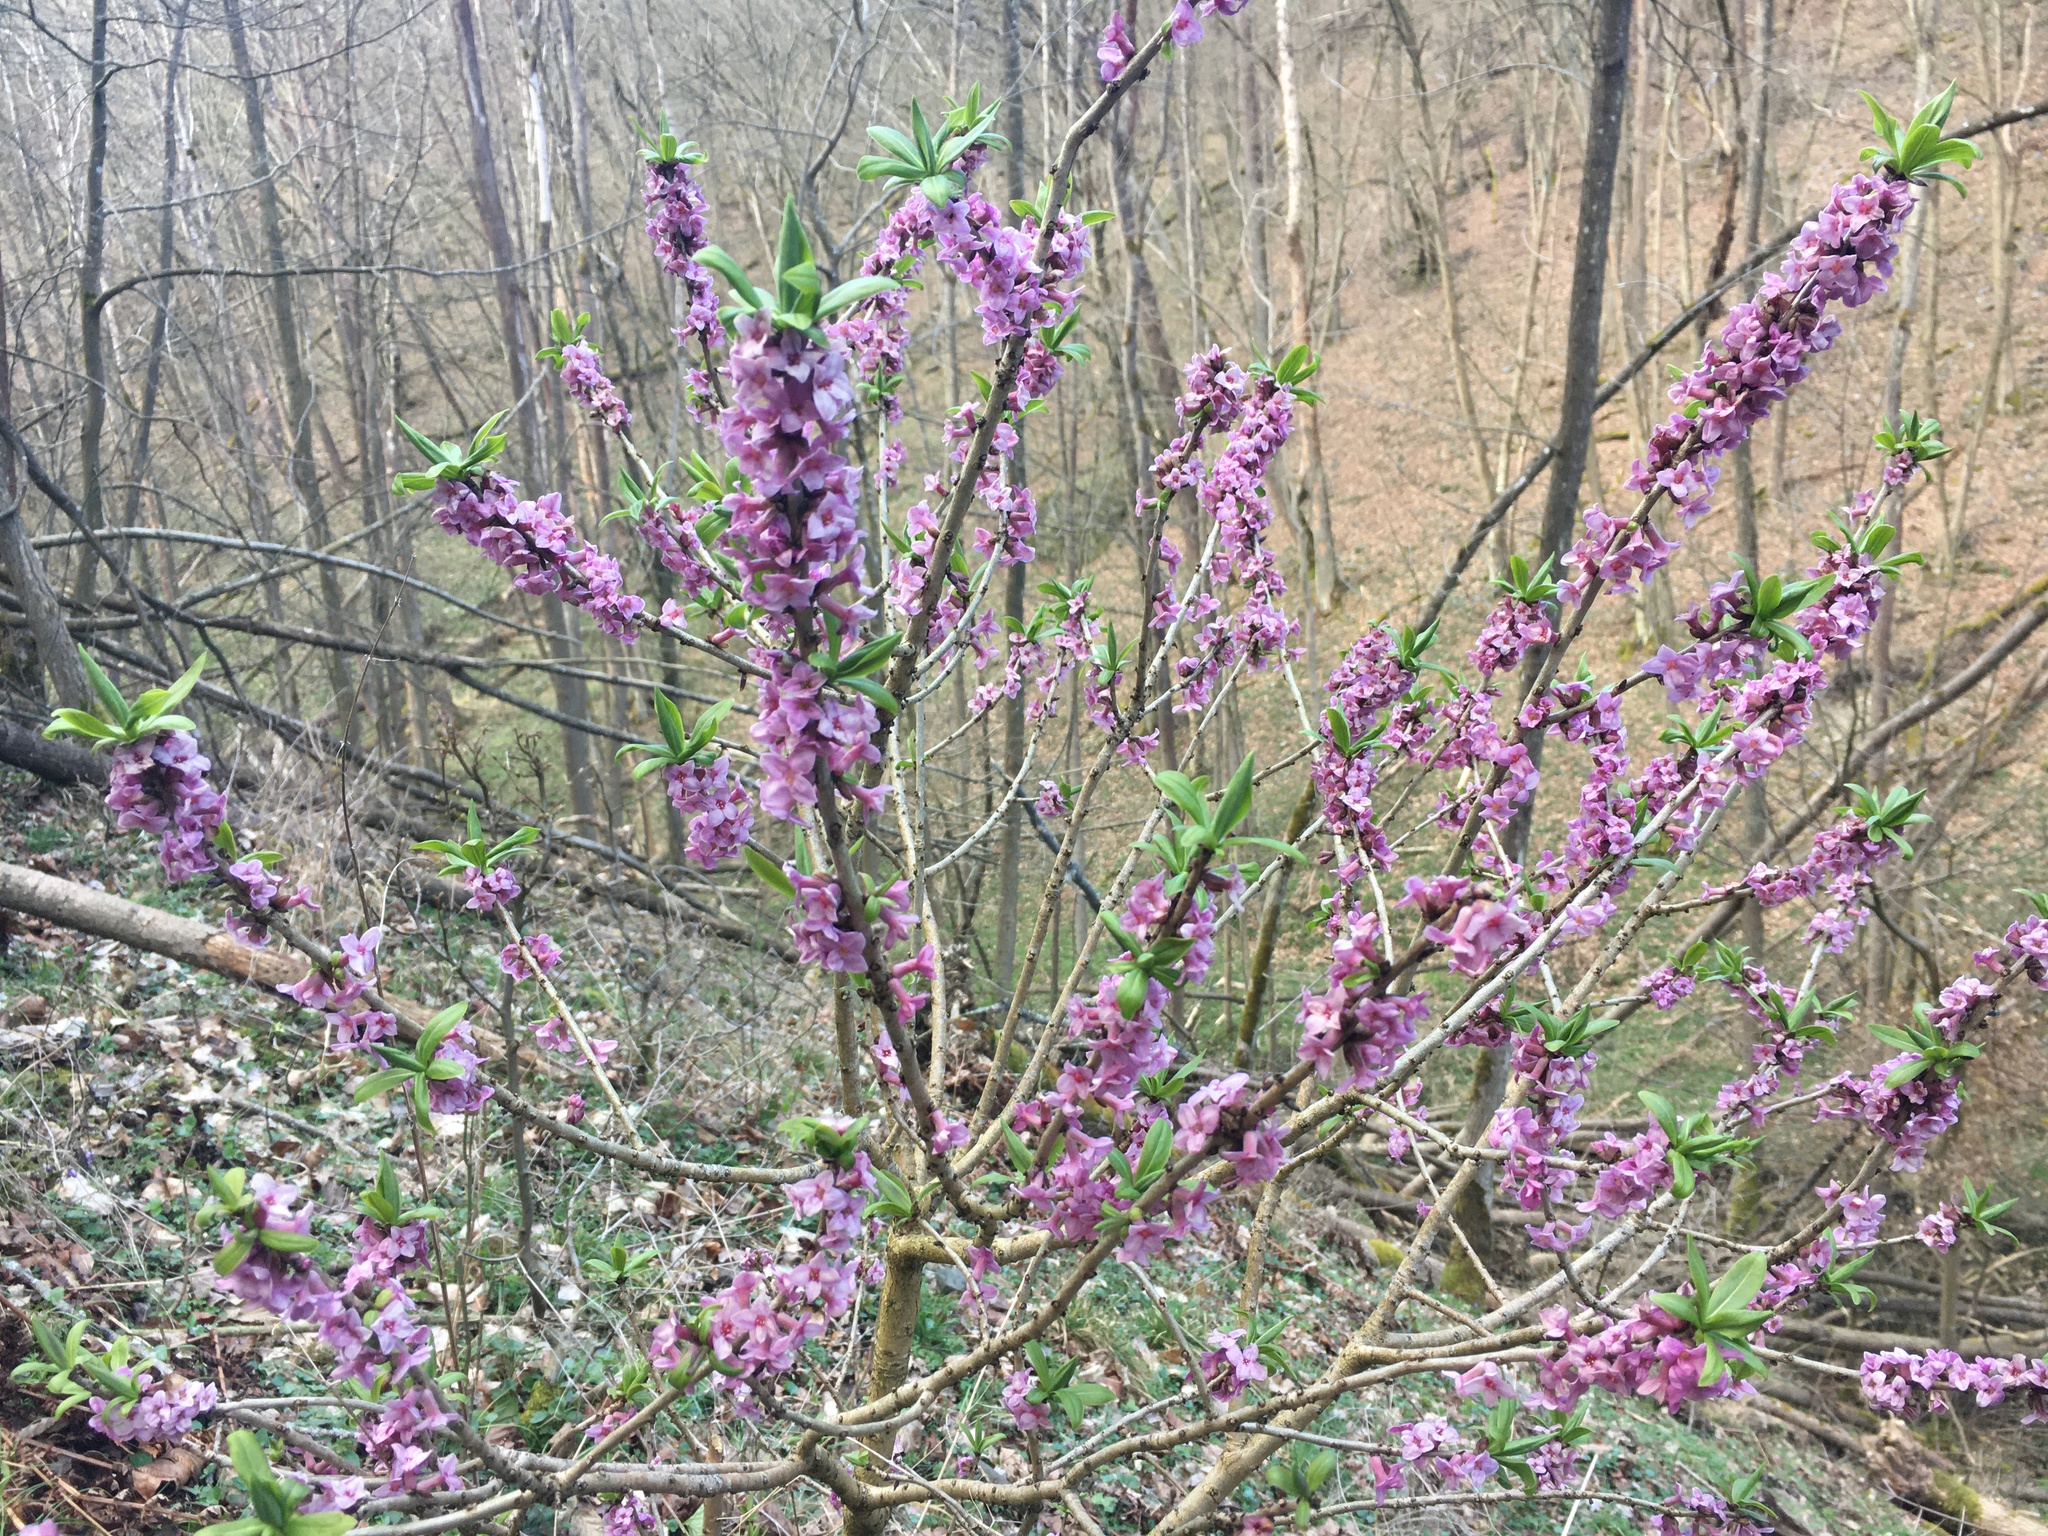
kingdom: Plantae
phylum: Tracheophyta
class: Magnoliopsida
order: Malvales
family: Thymelaeaceae
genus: Daphne
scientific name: Daphne mezereum
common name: Mezereon
